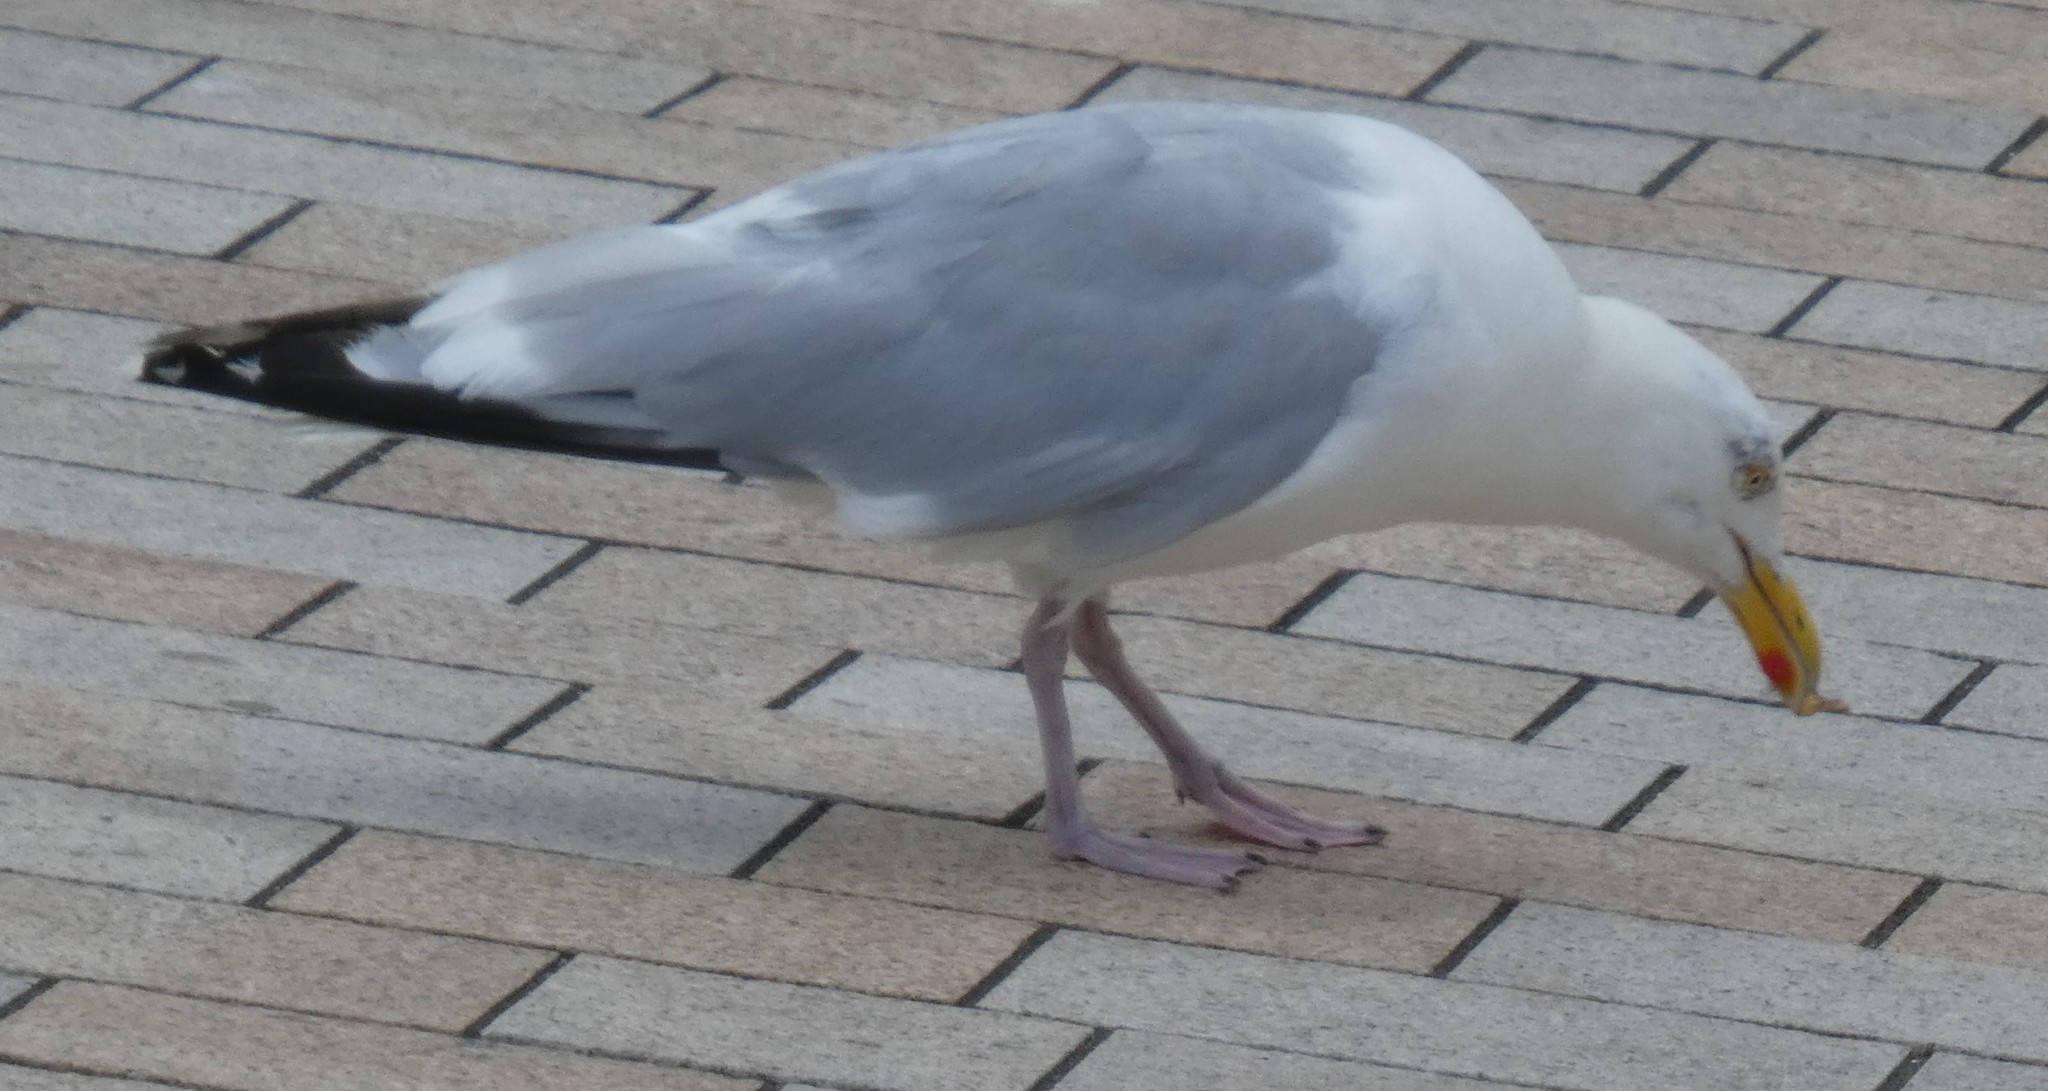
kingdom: Animalia
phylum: Chordata
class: Aves
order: Charadriiformes
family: Laridae
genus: Larus
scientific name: Larus argentatus
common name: Herring gull
